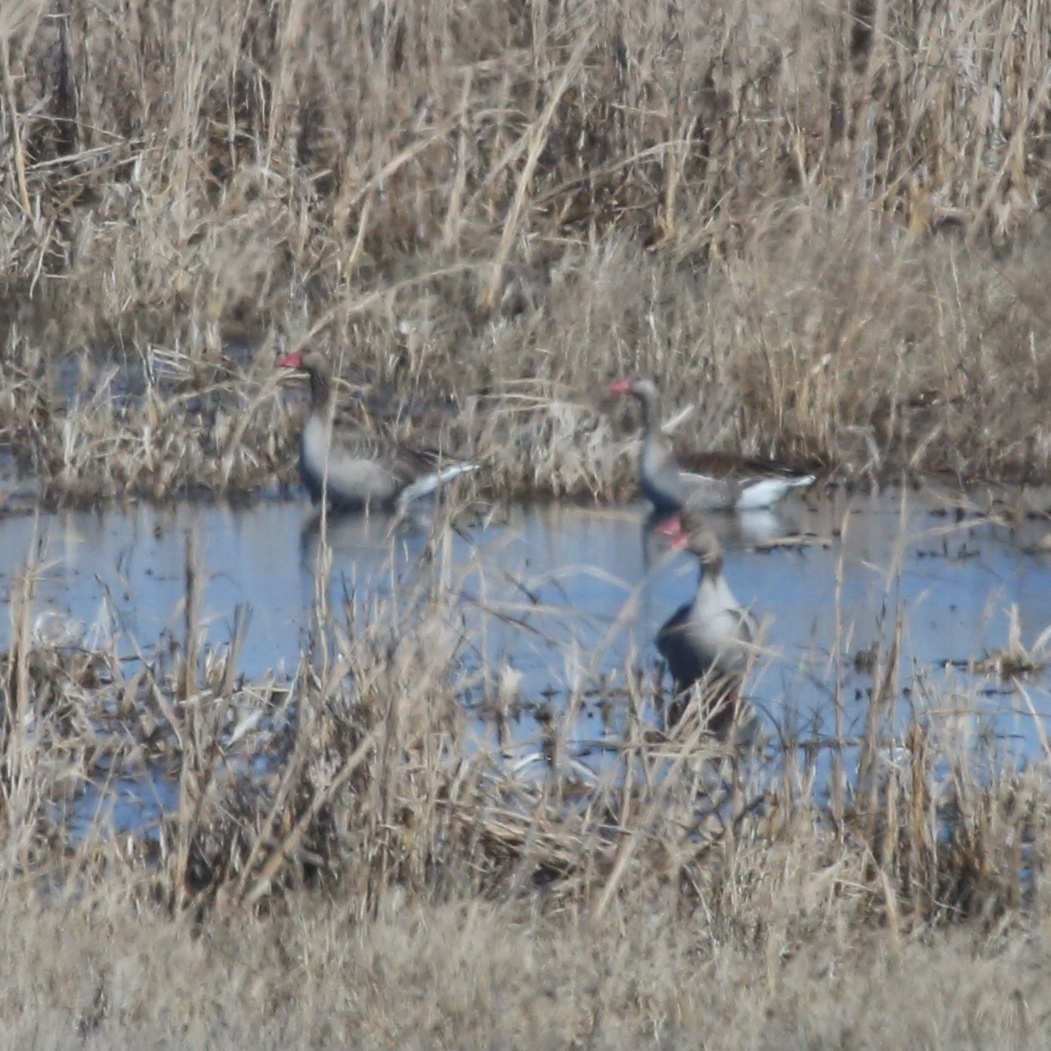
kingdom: Animalia
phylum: Chordata
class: Aves
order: Anseriformes
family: Anatidae
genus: Anser
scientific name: Anser anser
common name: Greylag goose
